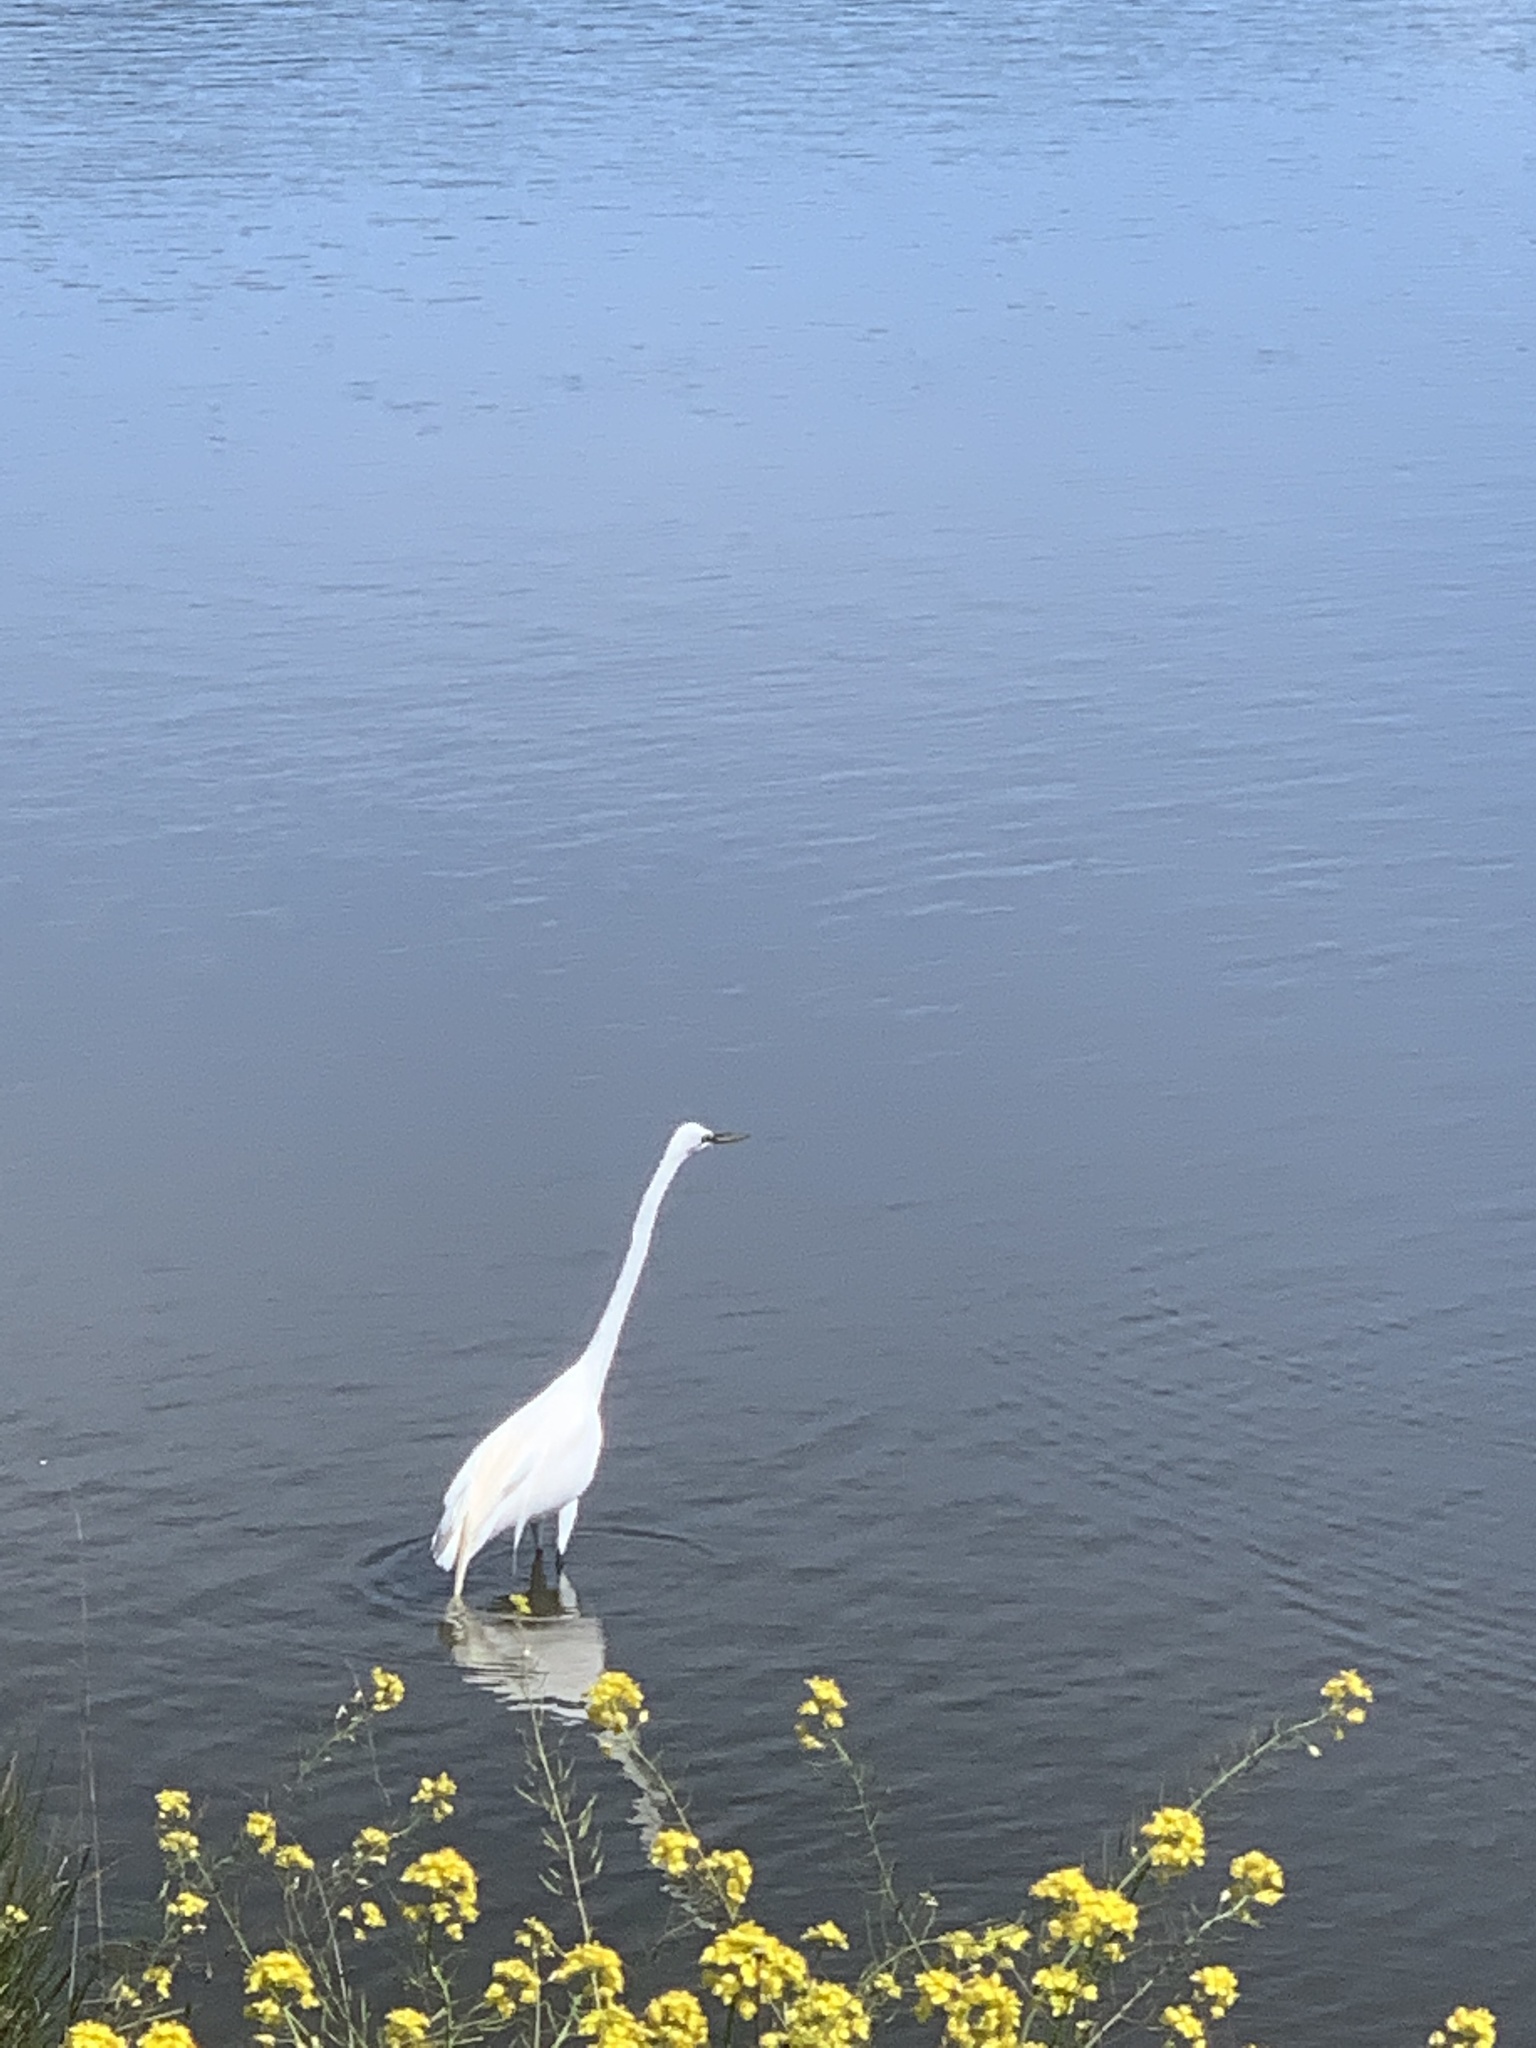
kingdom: Animalia
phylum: Chordata
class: Aves
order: Pelecaniformes
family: Ardeidae
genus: Ardea
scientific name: Ardea alba
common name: Great egret
